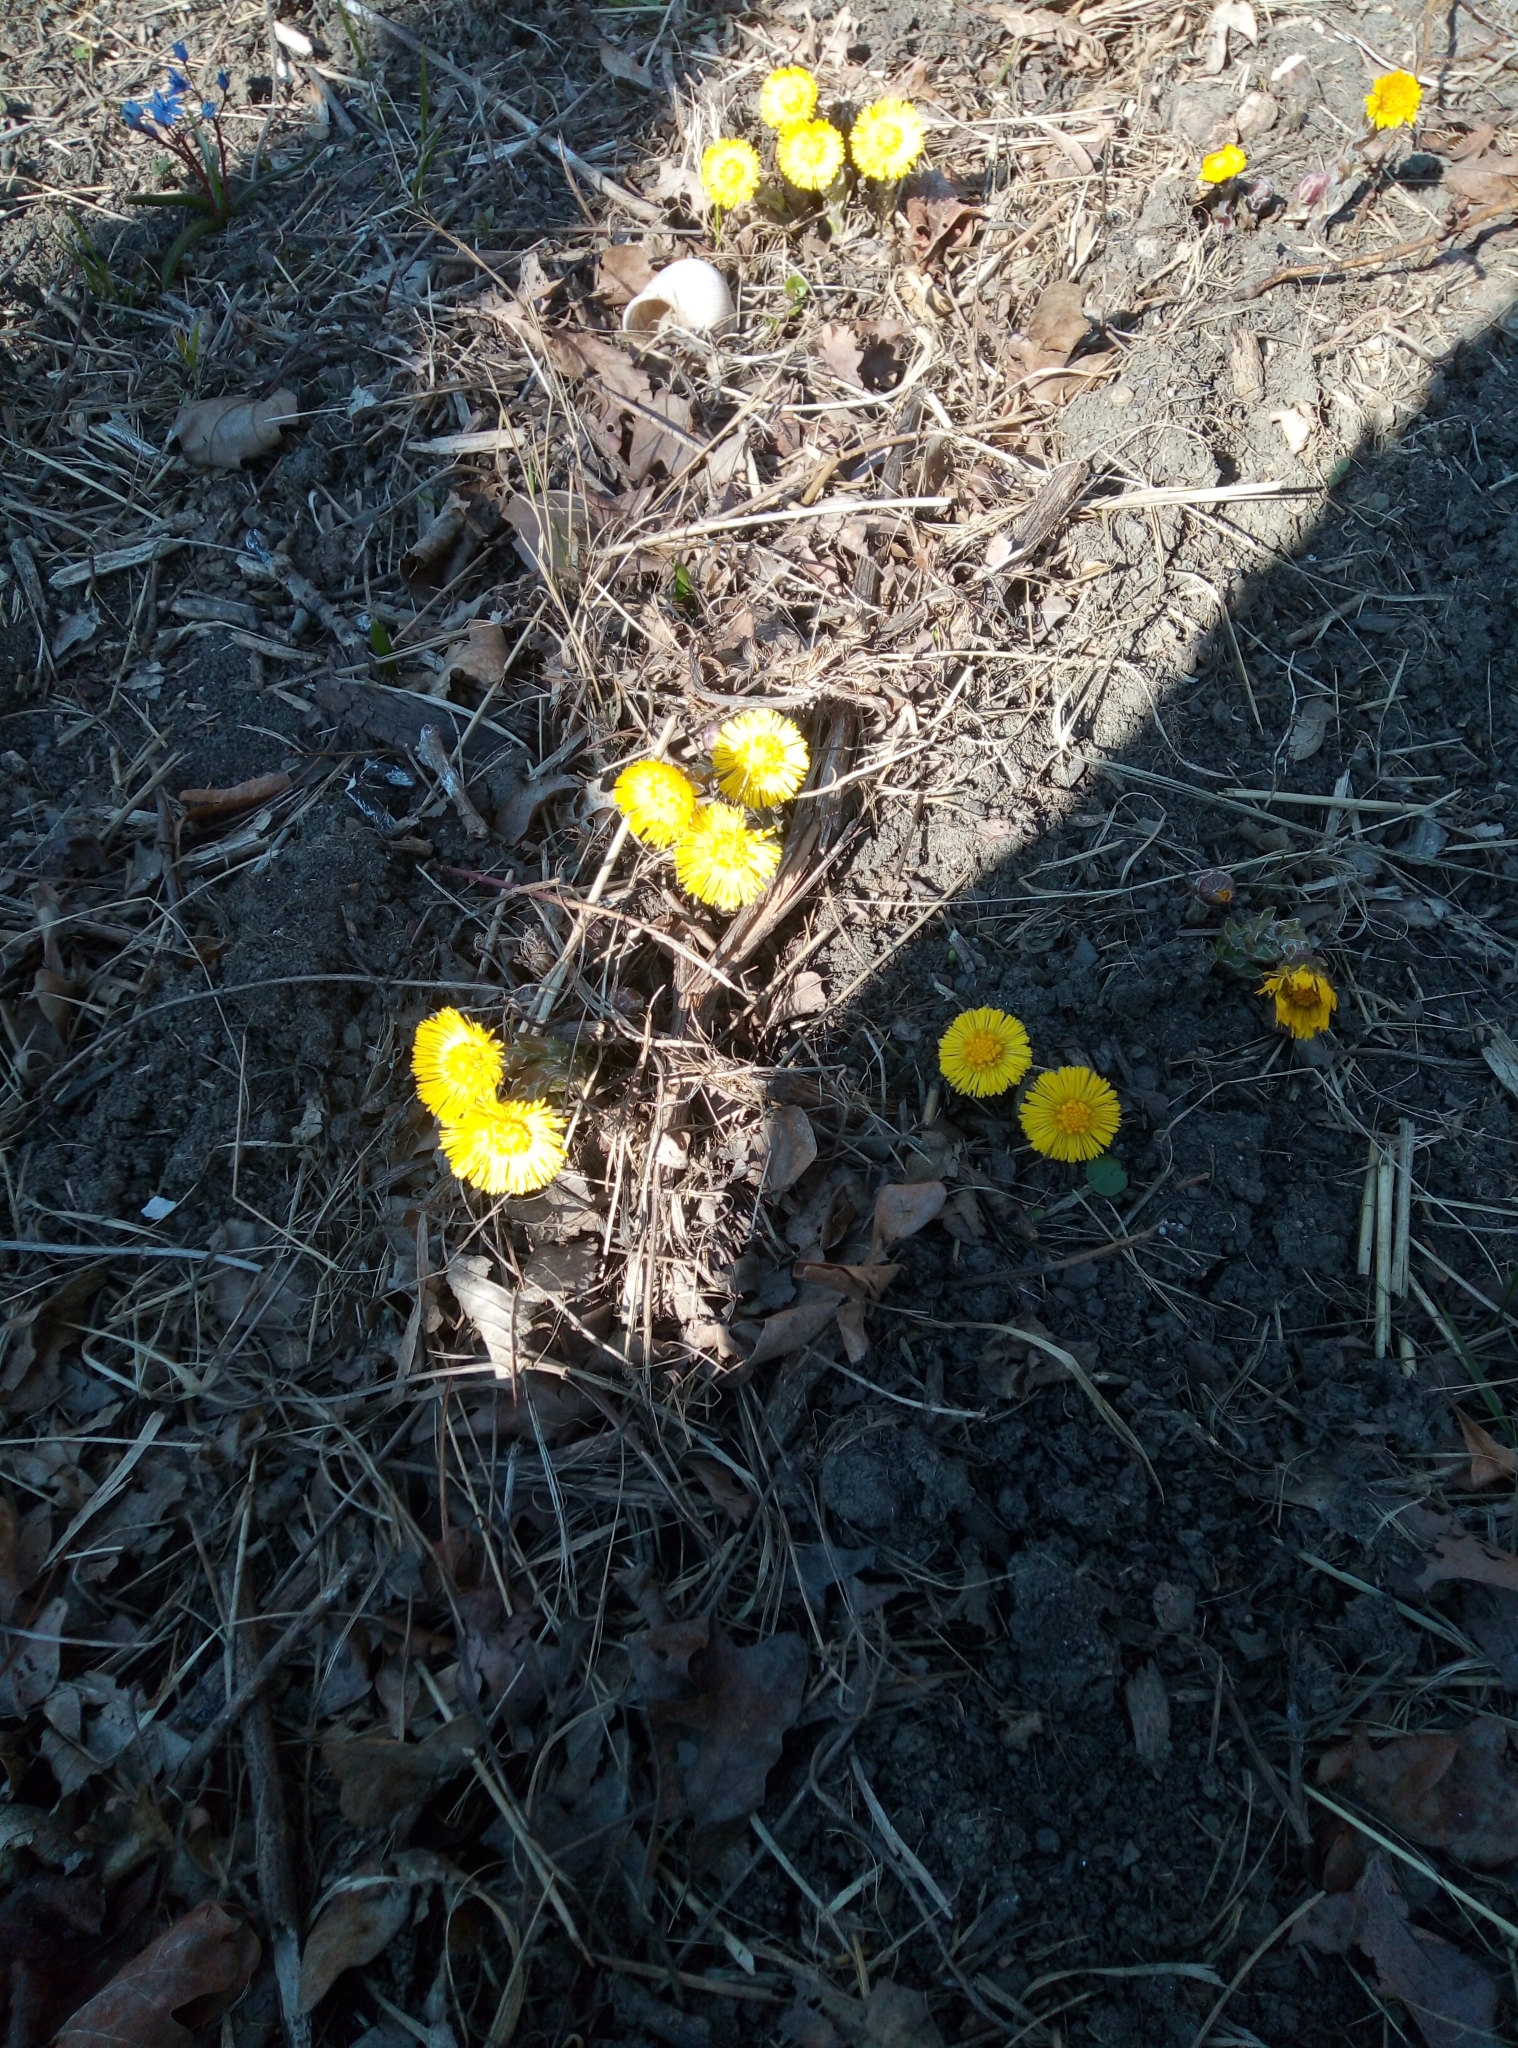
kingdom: Plantae
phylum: Tracheophyta
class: Magnoliopsida
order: Asterales
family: Asteraceae
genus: Tussilago
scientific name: Tussilago farfara
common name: Coltsfoot
